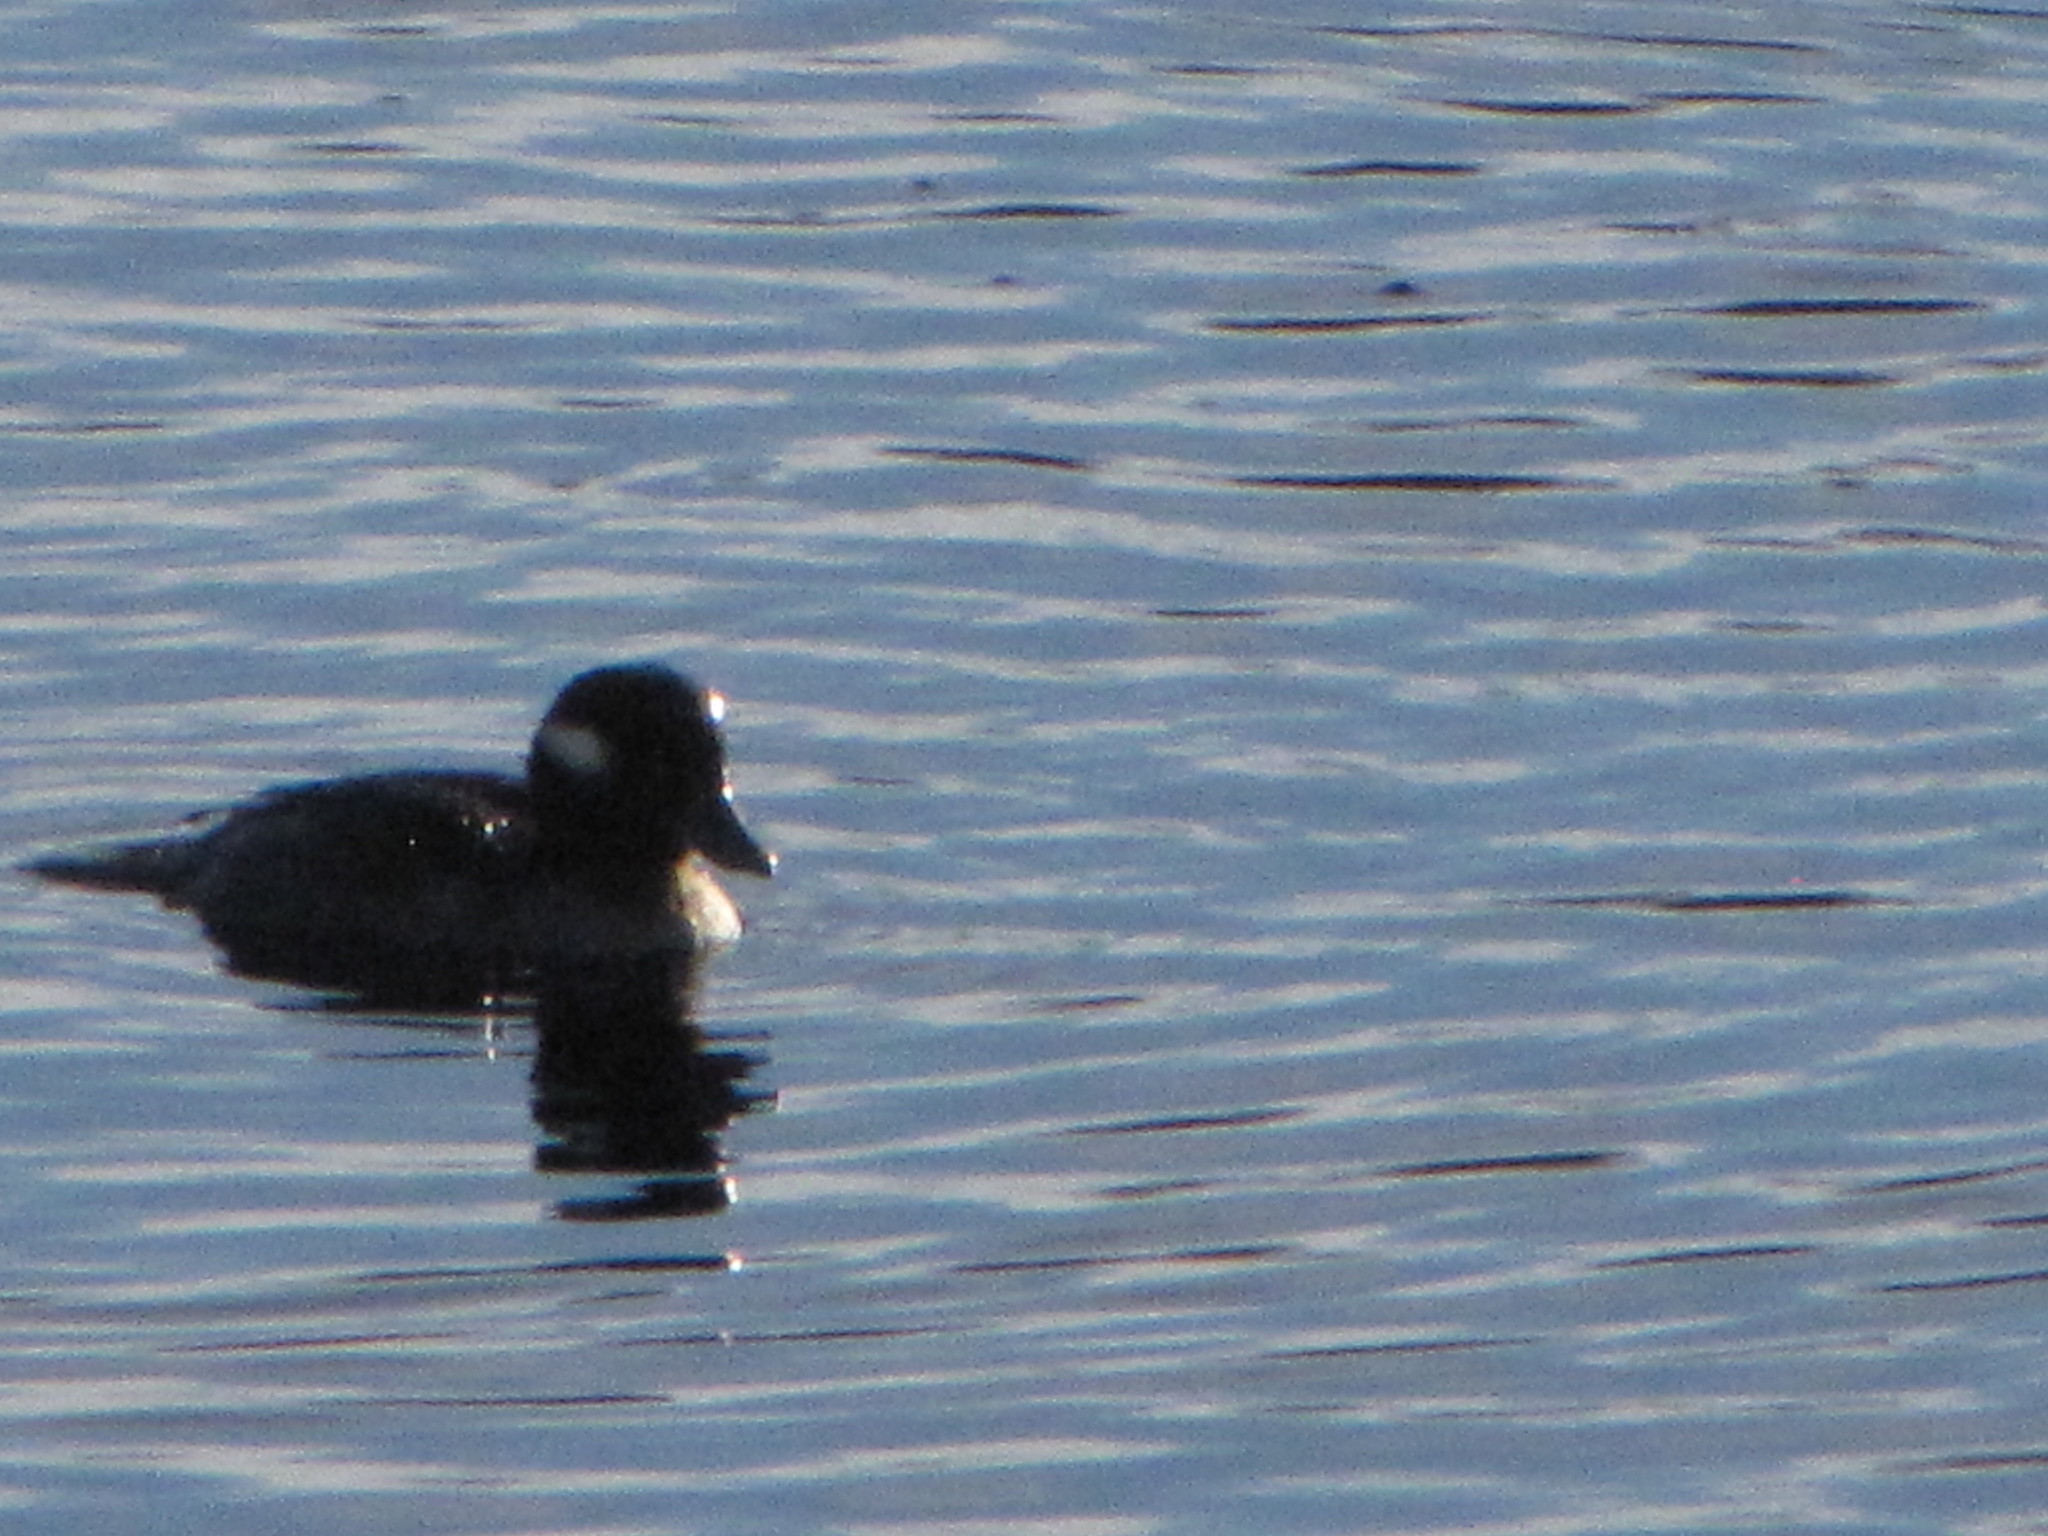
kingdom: Animalia
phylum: Chordata
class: Aves
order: Anseriformes
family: Anatidae
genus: Bucephala
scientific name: Bucephala albeola
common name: Bufflehead
